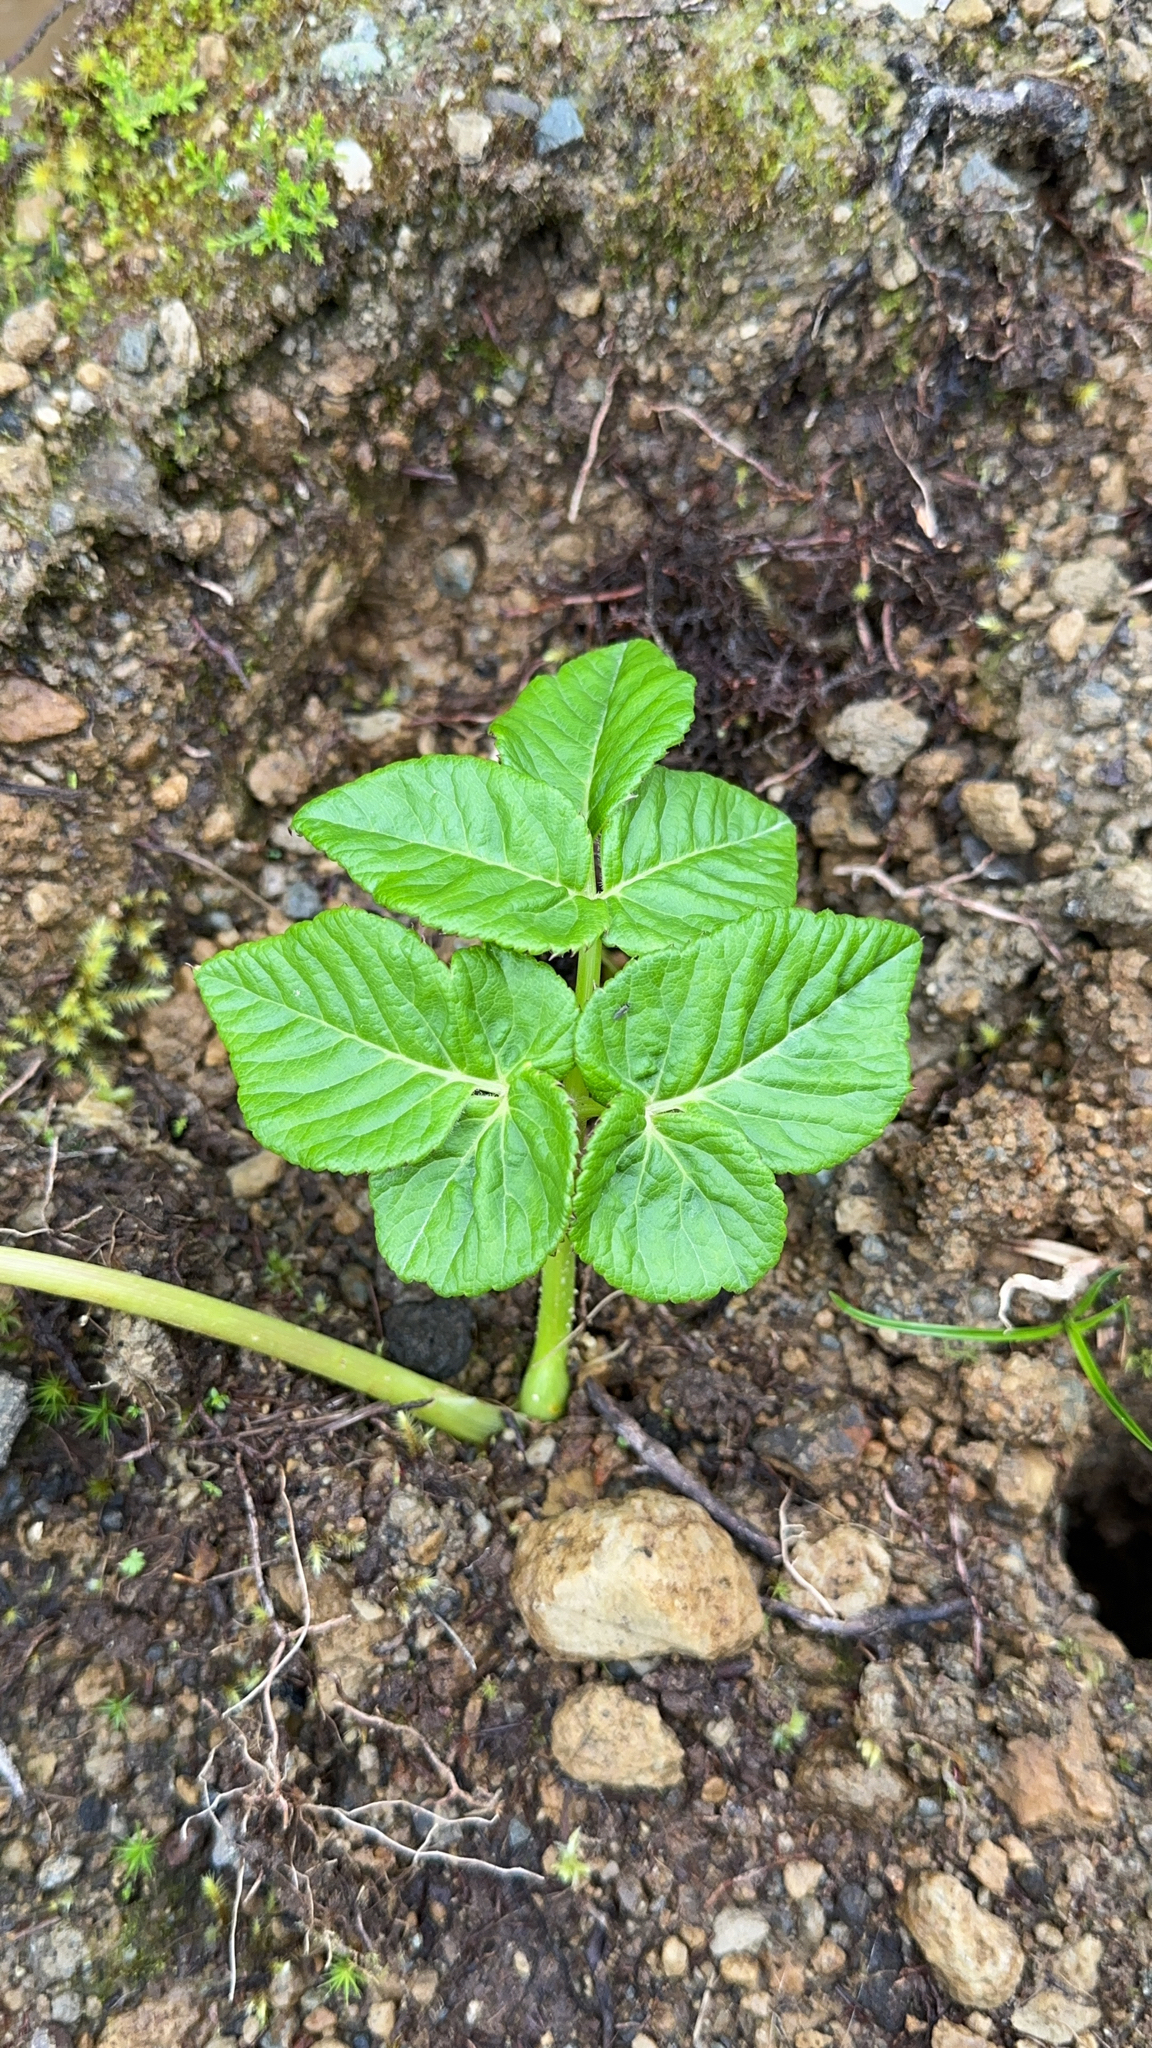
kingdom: Plantae
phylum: Tracheophyta
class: Magnoliopsida
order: Apiales
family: Apiaceae
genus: Angelica
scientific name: Angelica lignescens
